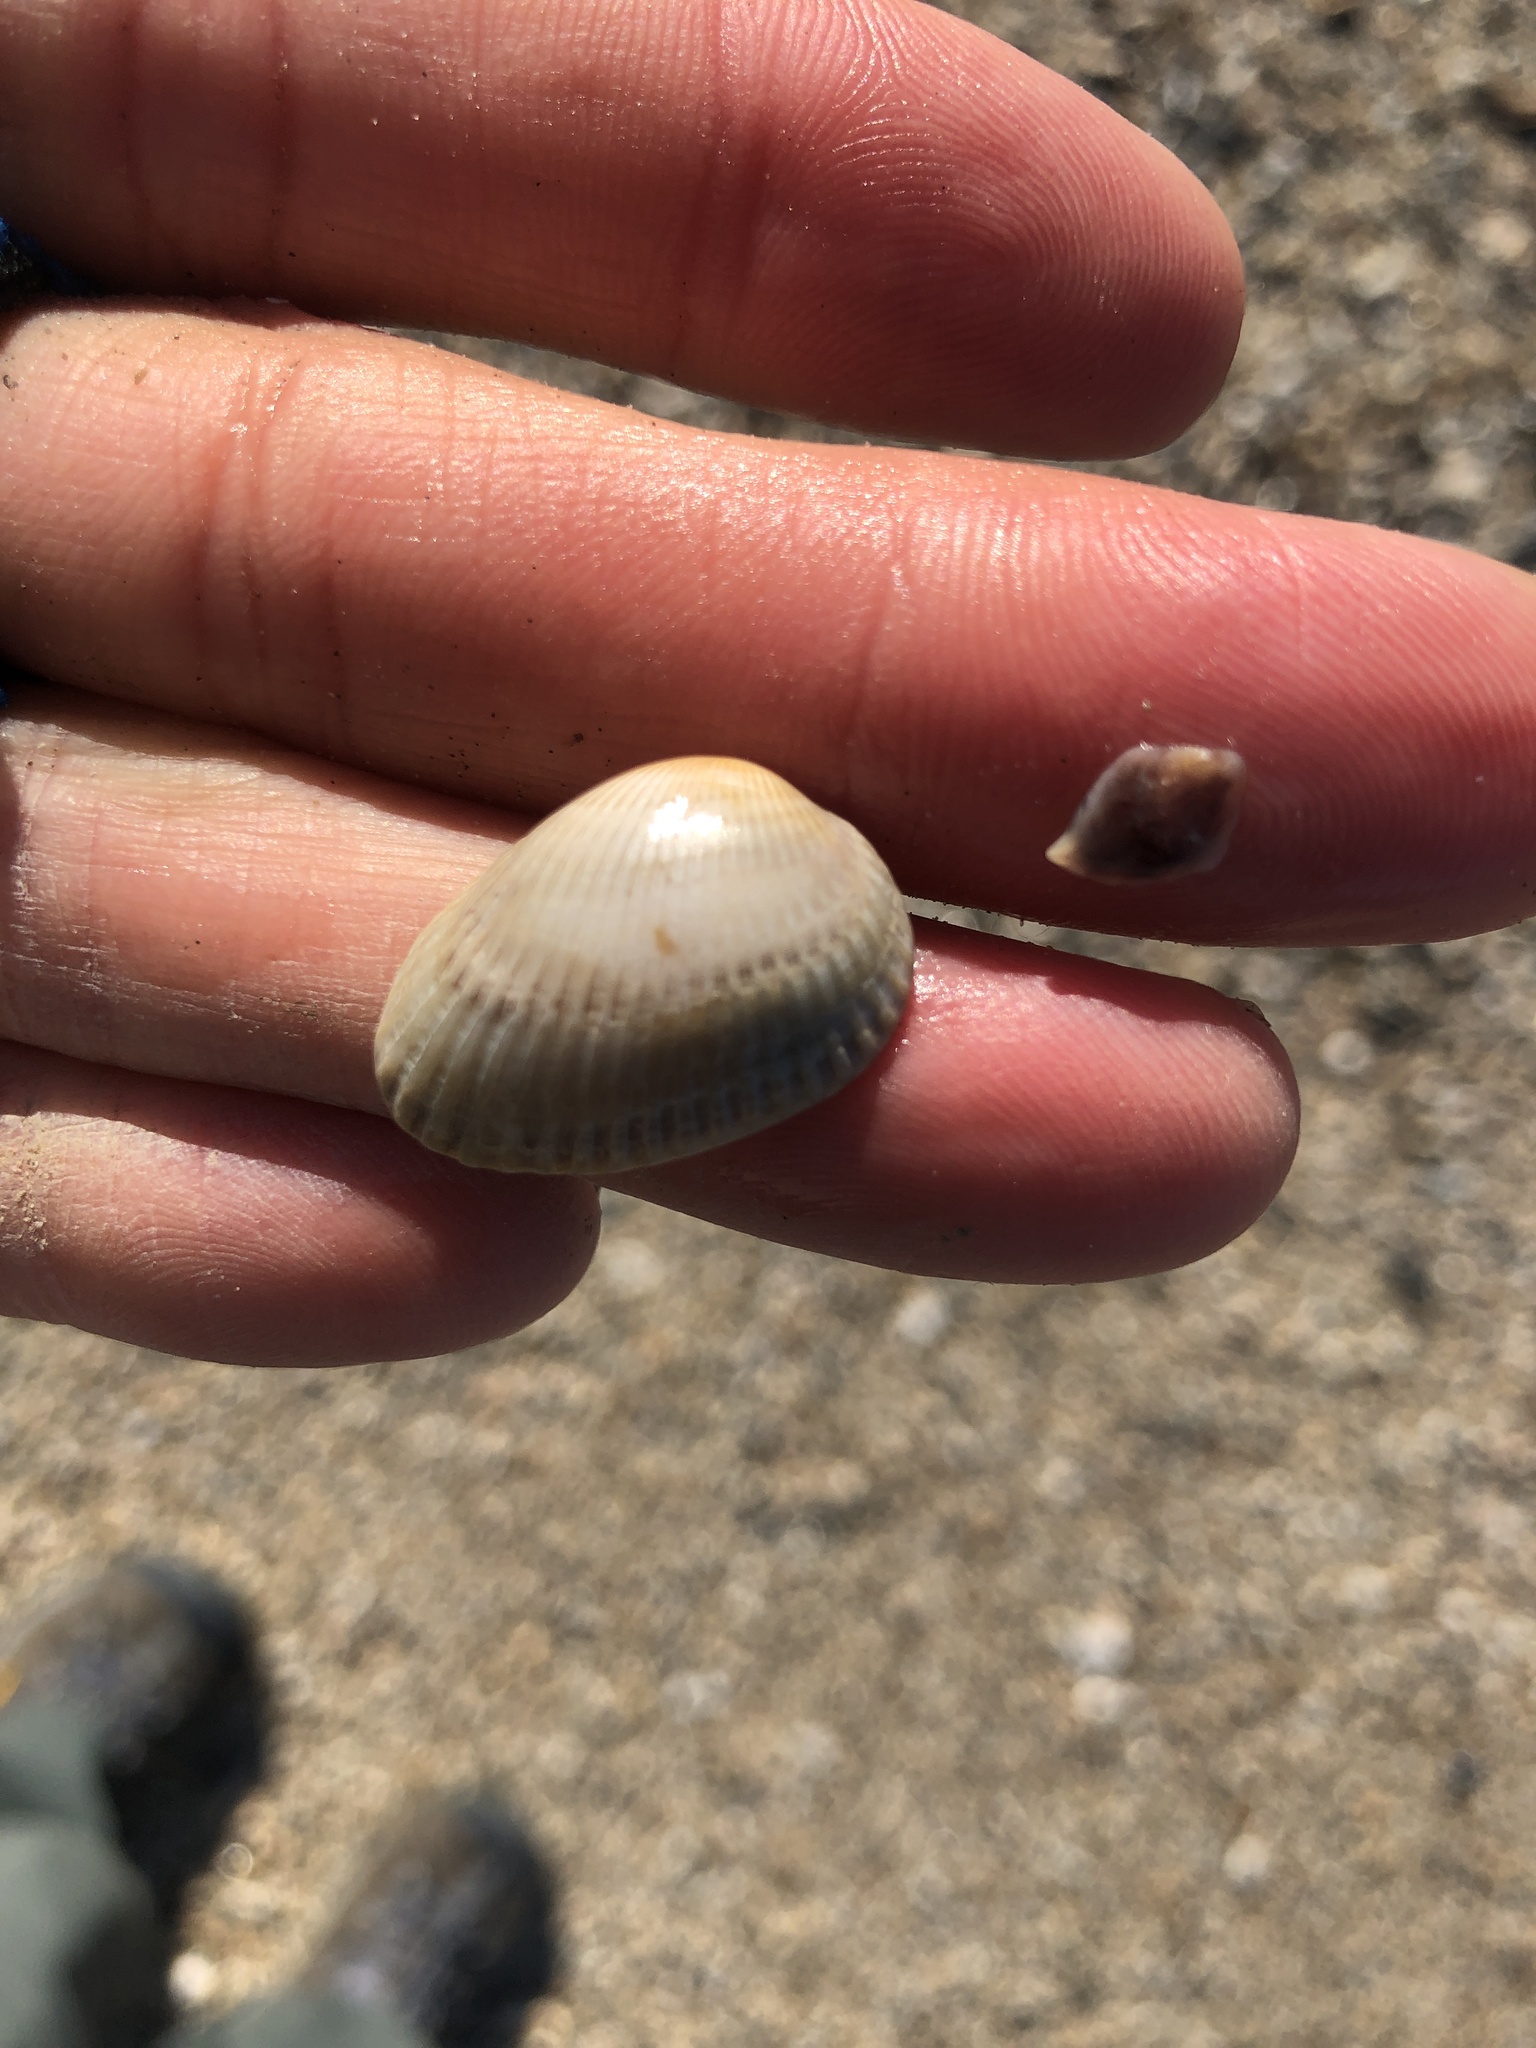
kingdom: Animalia
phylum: Mollusca
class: Bivalvia
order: Arcida
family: Arcidae
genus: Anadara
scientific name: Anadara transversa
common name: Transverse ark
